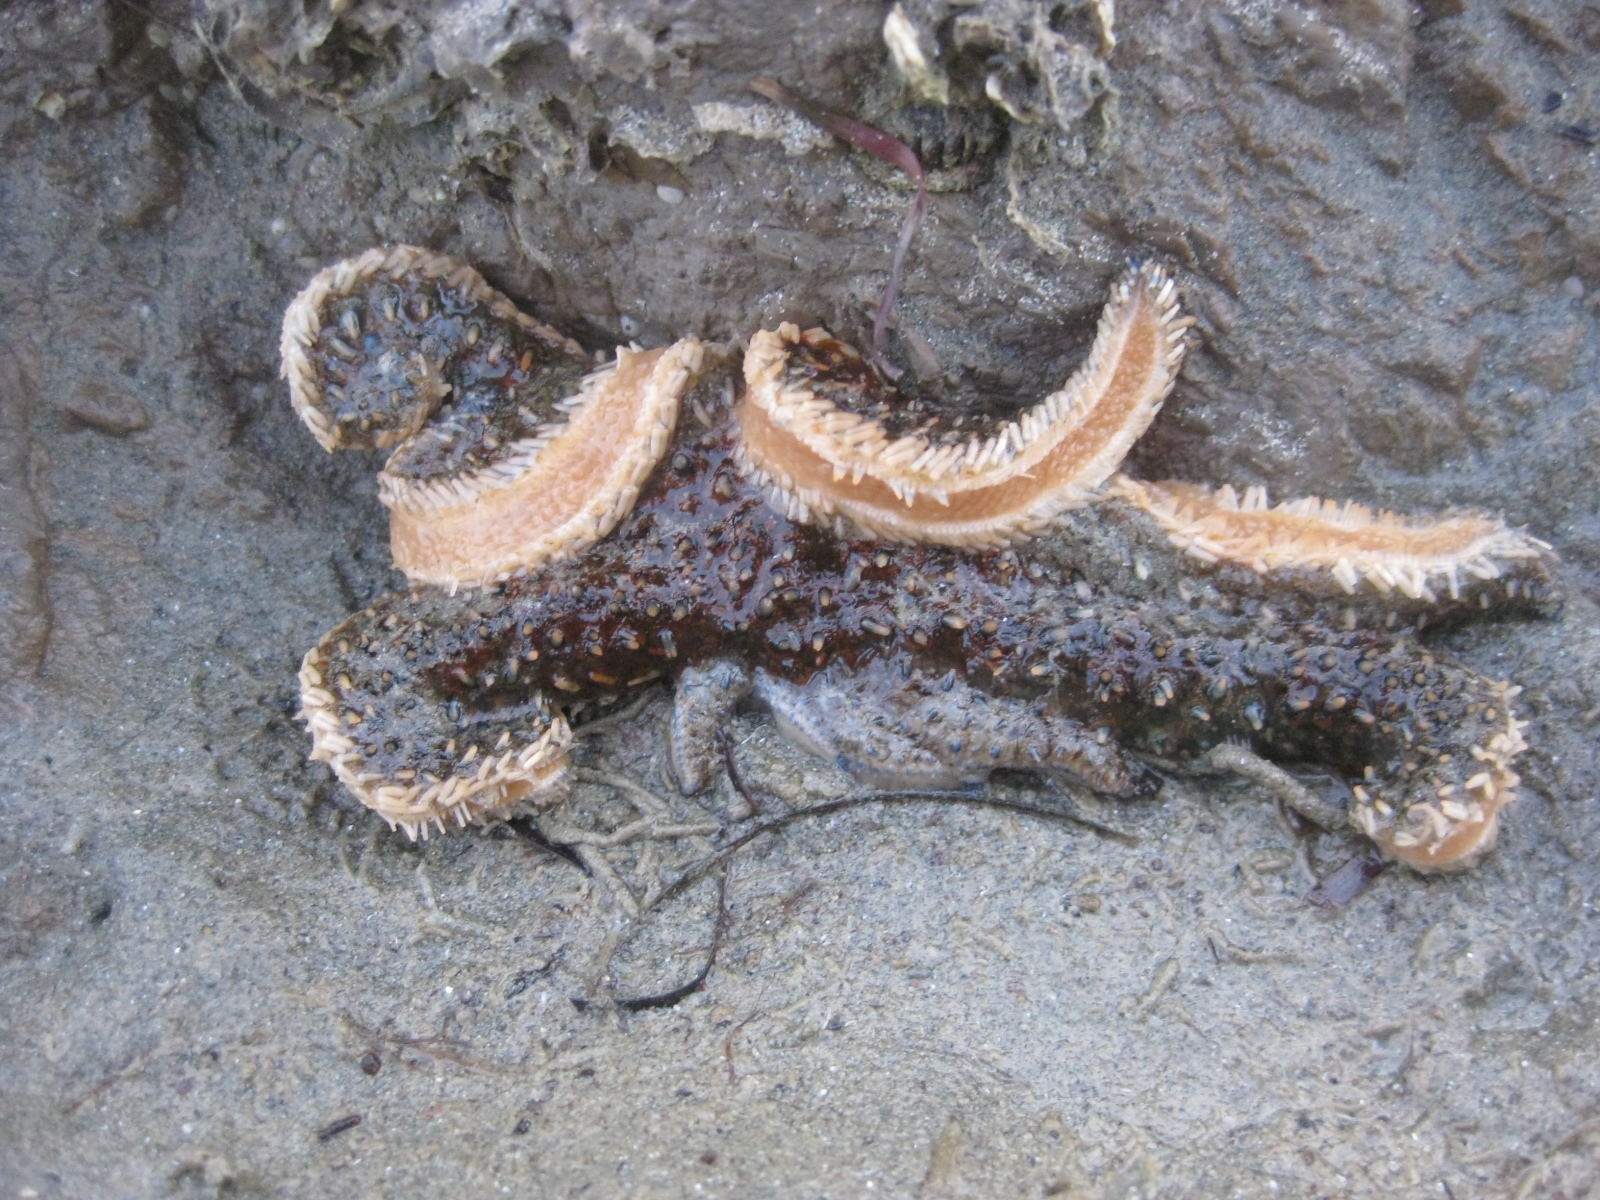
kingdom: Animalia
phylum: Echinodermata
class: Asteroidea
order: Forcipulatida
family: Asteriidae
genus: Coscinasterias
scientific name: Coscinasterias muricata
